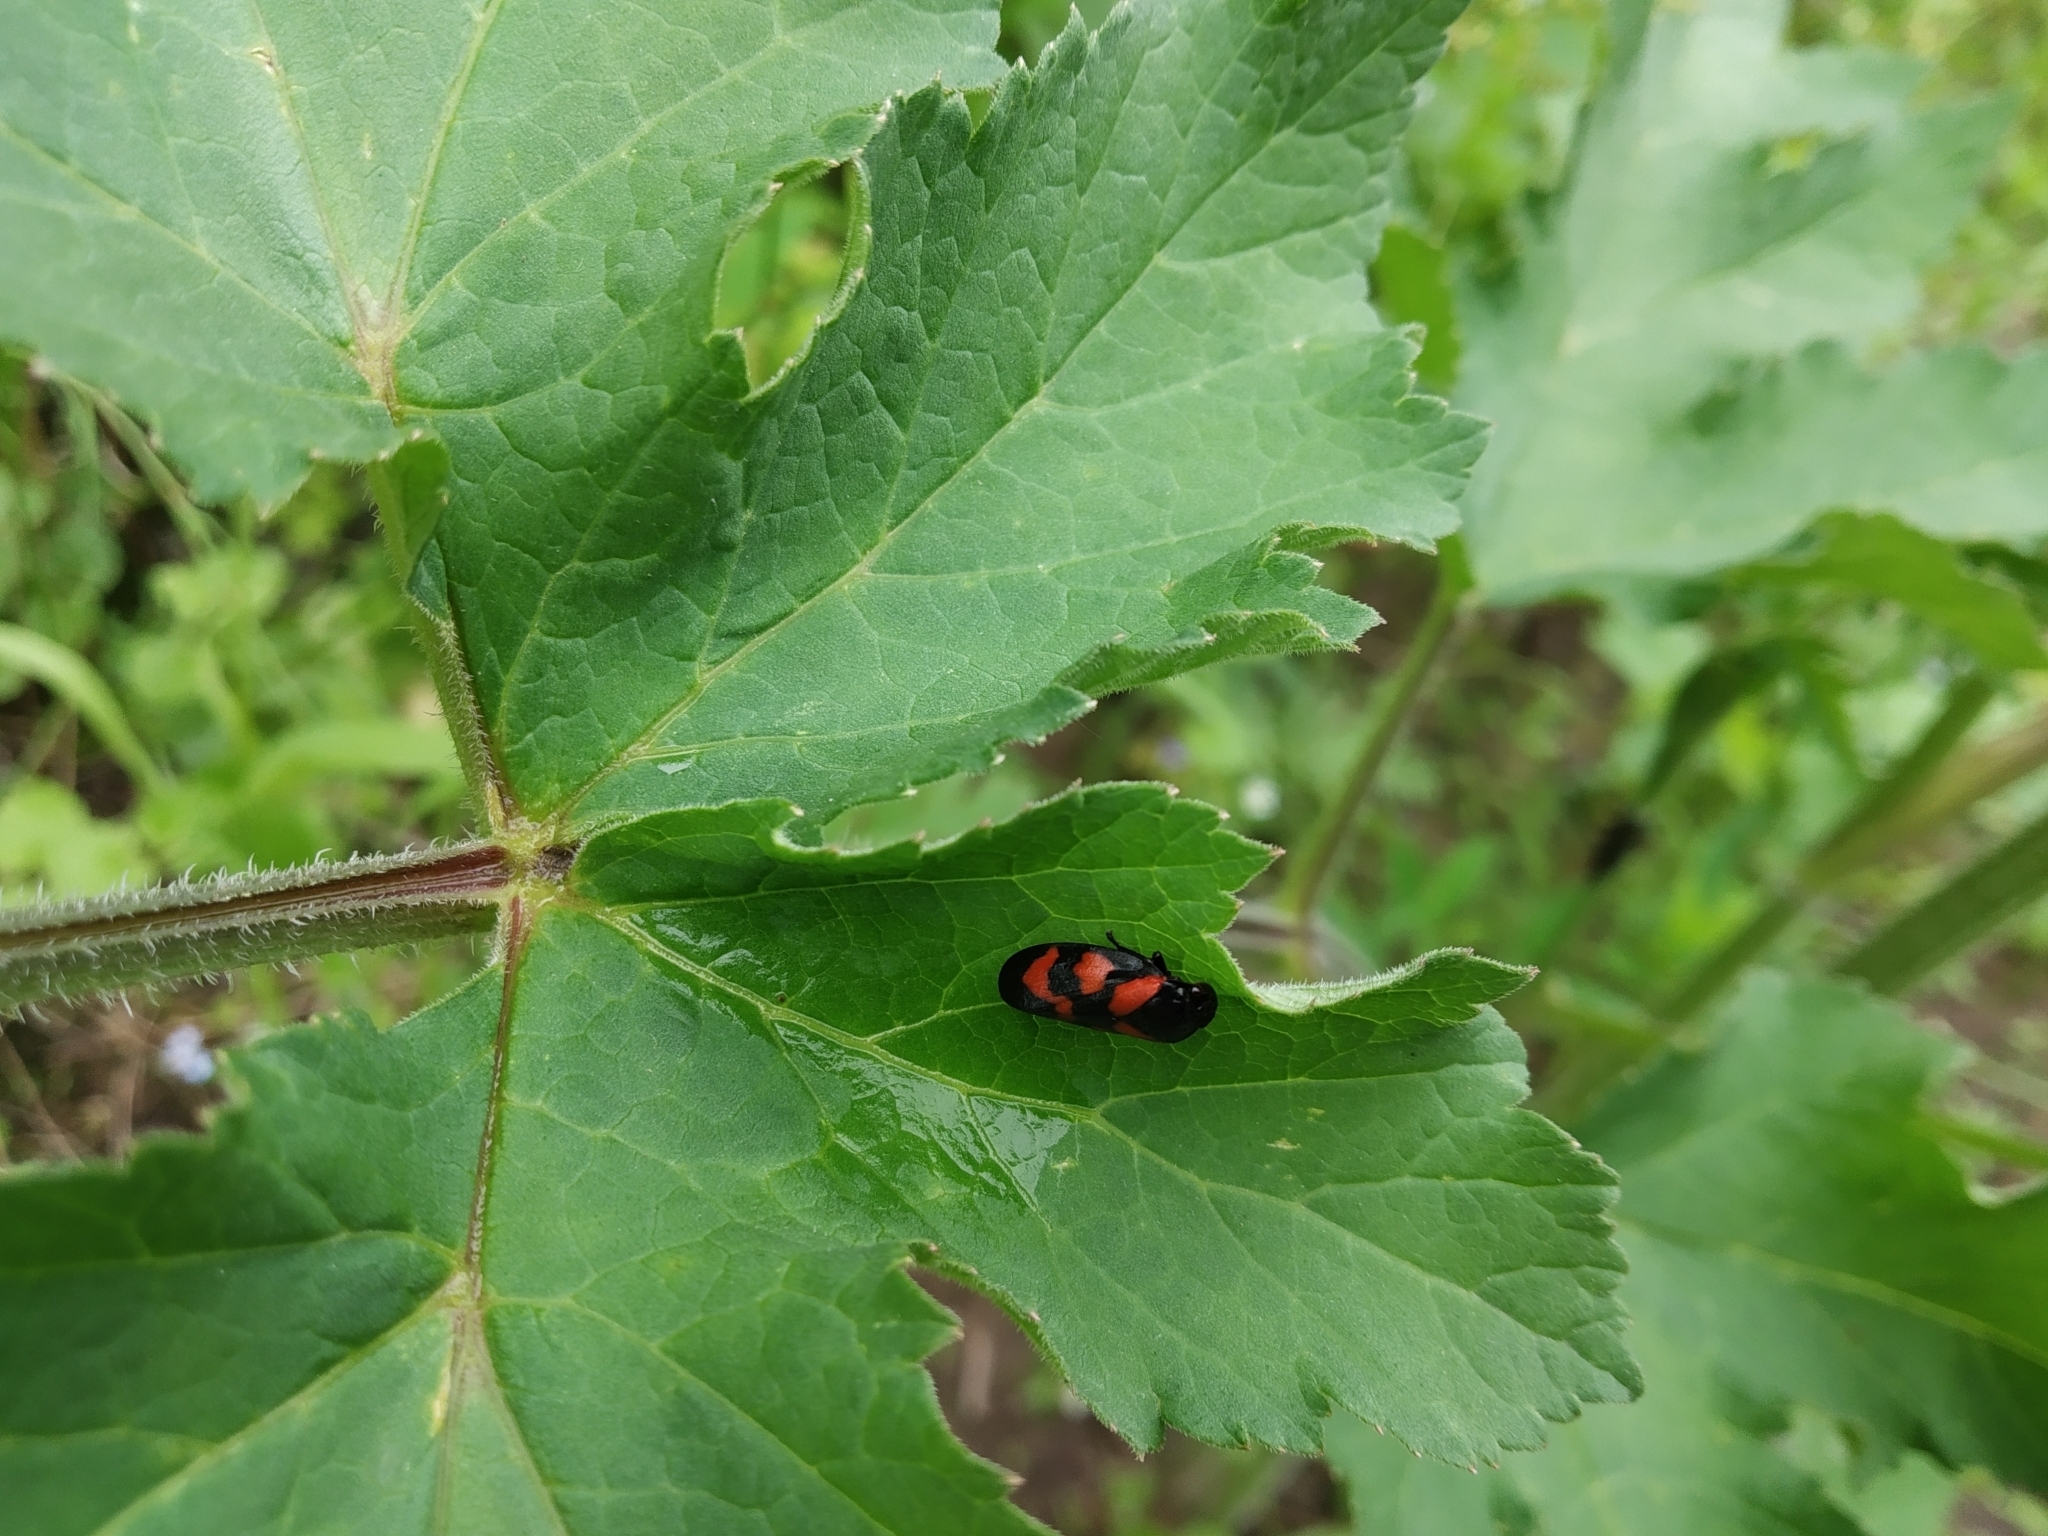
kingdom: Animalia
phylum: Arthropoda
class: Insecta
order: Hemiptera
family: Cercopidae
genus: Cercopis
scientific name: Cercopis vulnerata
